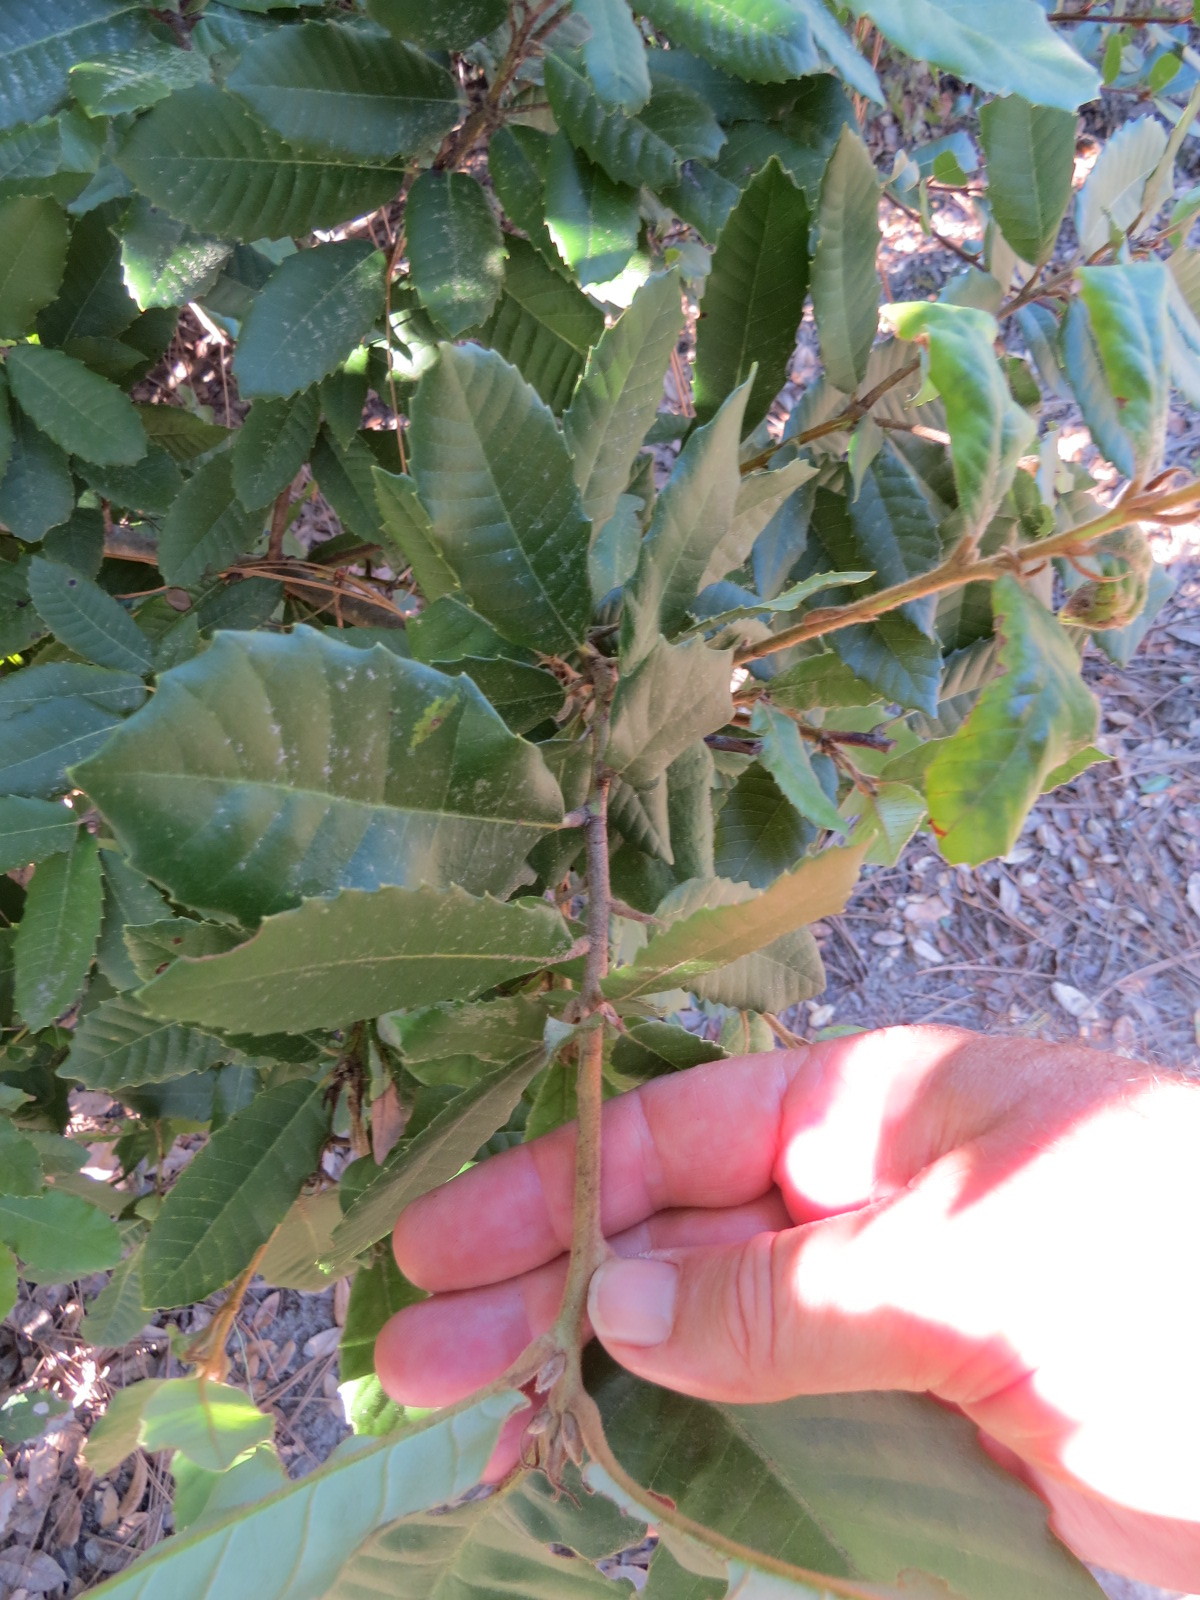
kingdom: Plantae
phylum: Tracheophyta
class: Magnoliopsida
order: Fagales
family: Fagaceae
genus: Notholithocarpus
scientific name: Notholithocarpus densiflorus
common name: Tan bark oak
